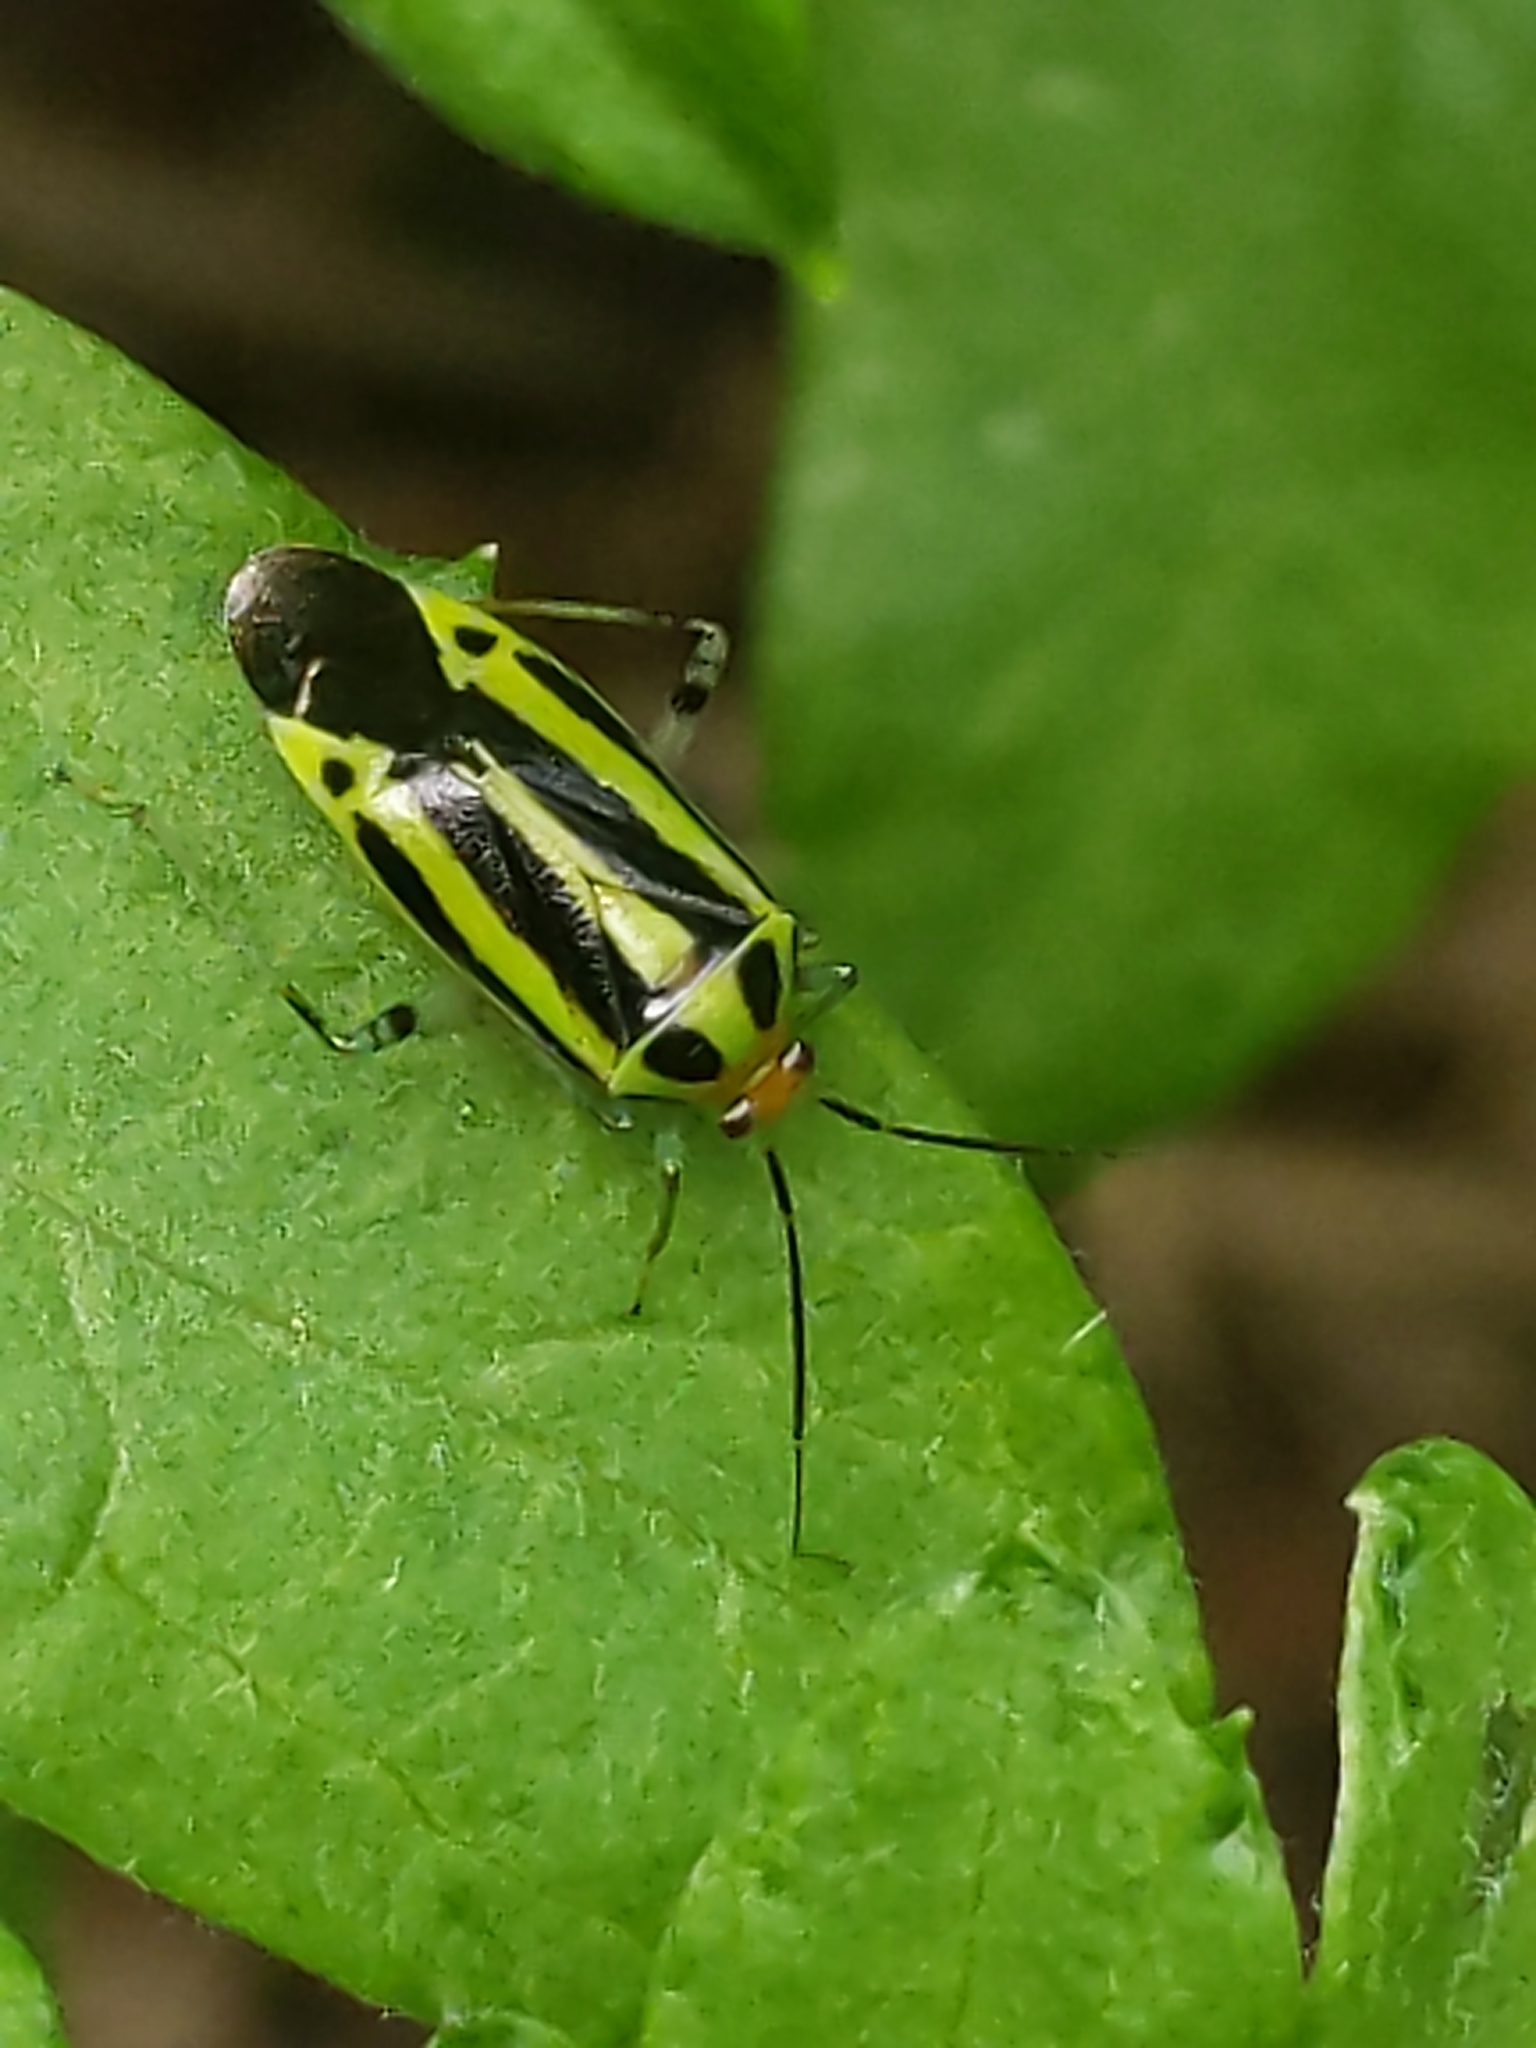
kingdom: Animalia
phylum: Arthropoda
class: Insecta
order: Hemiptera
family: Miridae
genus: Poecilocapsus
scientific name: Poecilocapsus lineatus
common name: Four-lined plant bug
